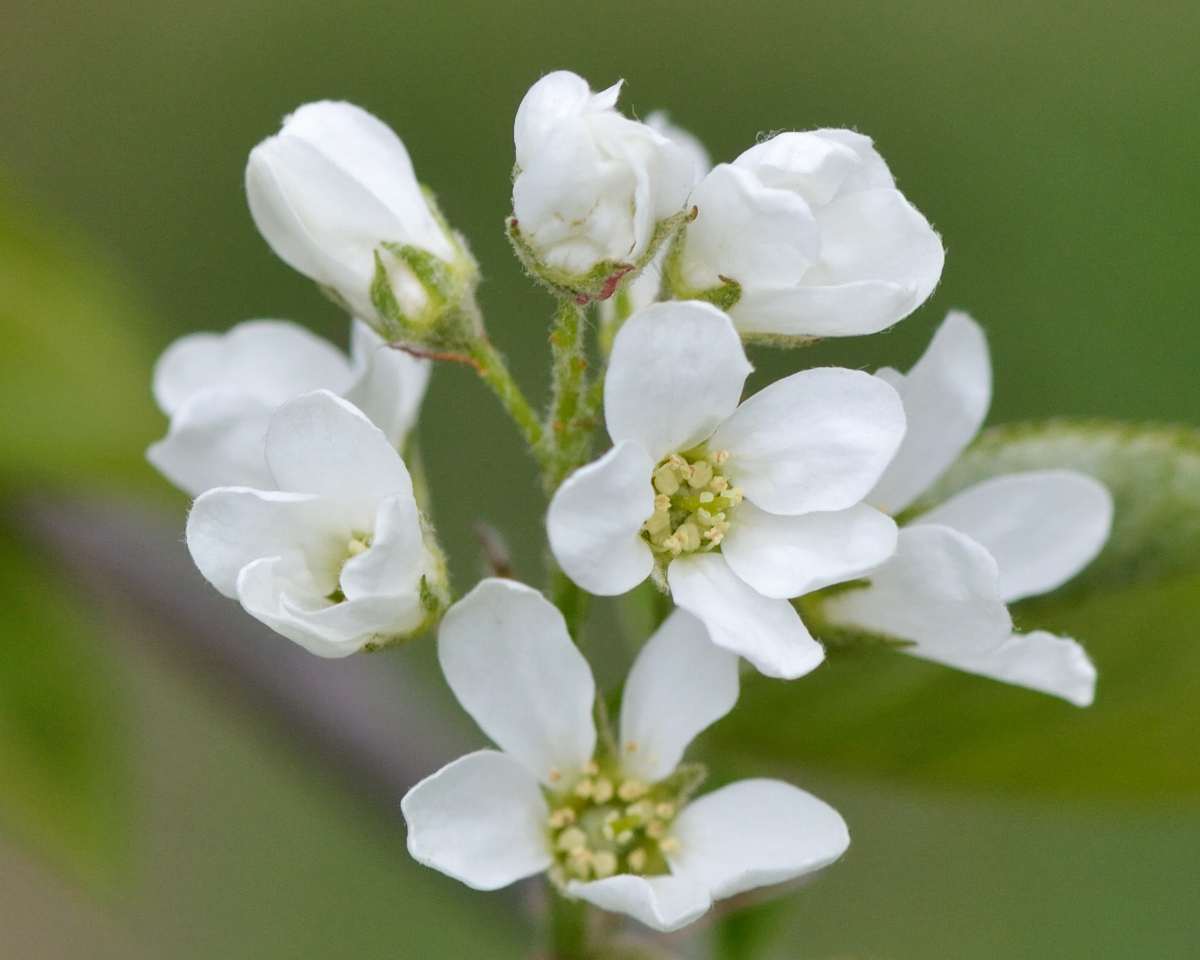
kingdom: Plantae
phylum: Tracheophyta
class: Magnoliopsida
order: Rosales
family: Rosaceae
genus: Amelanchier
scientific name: Amelanchier
